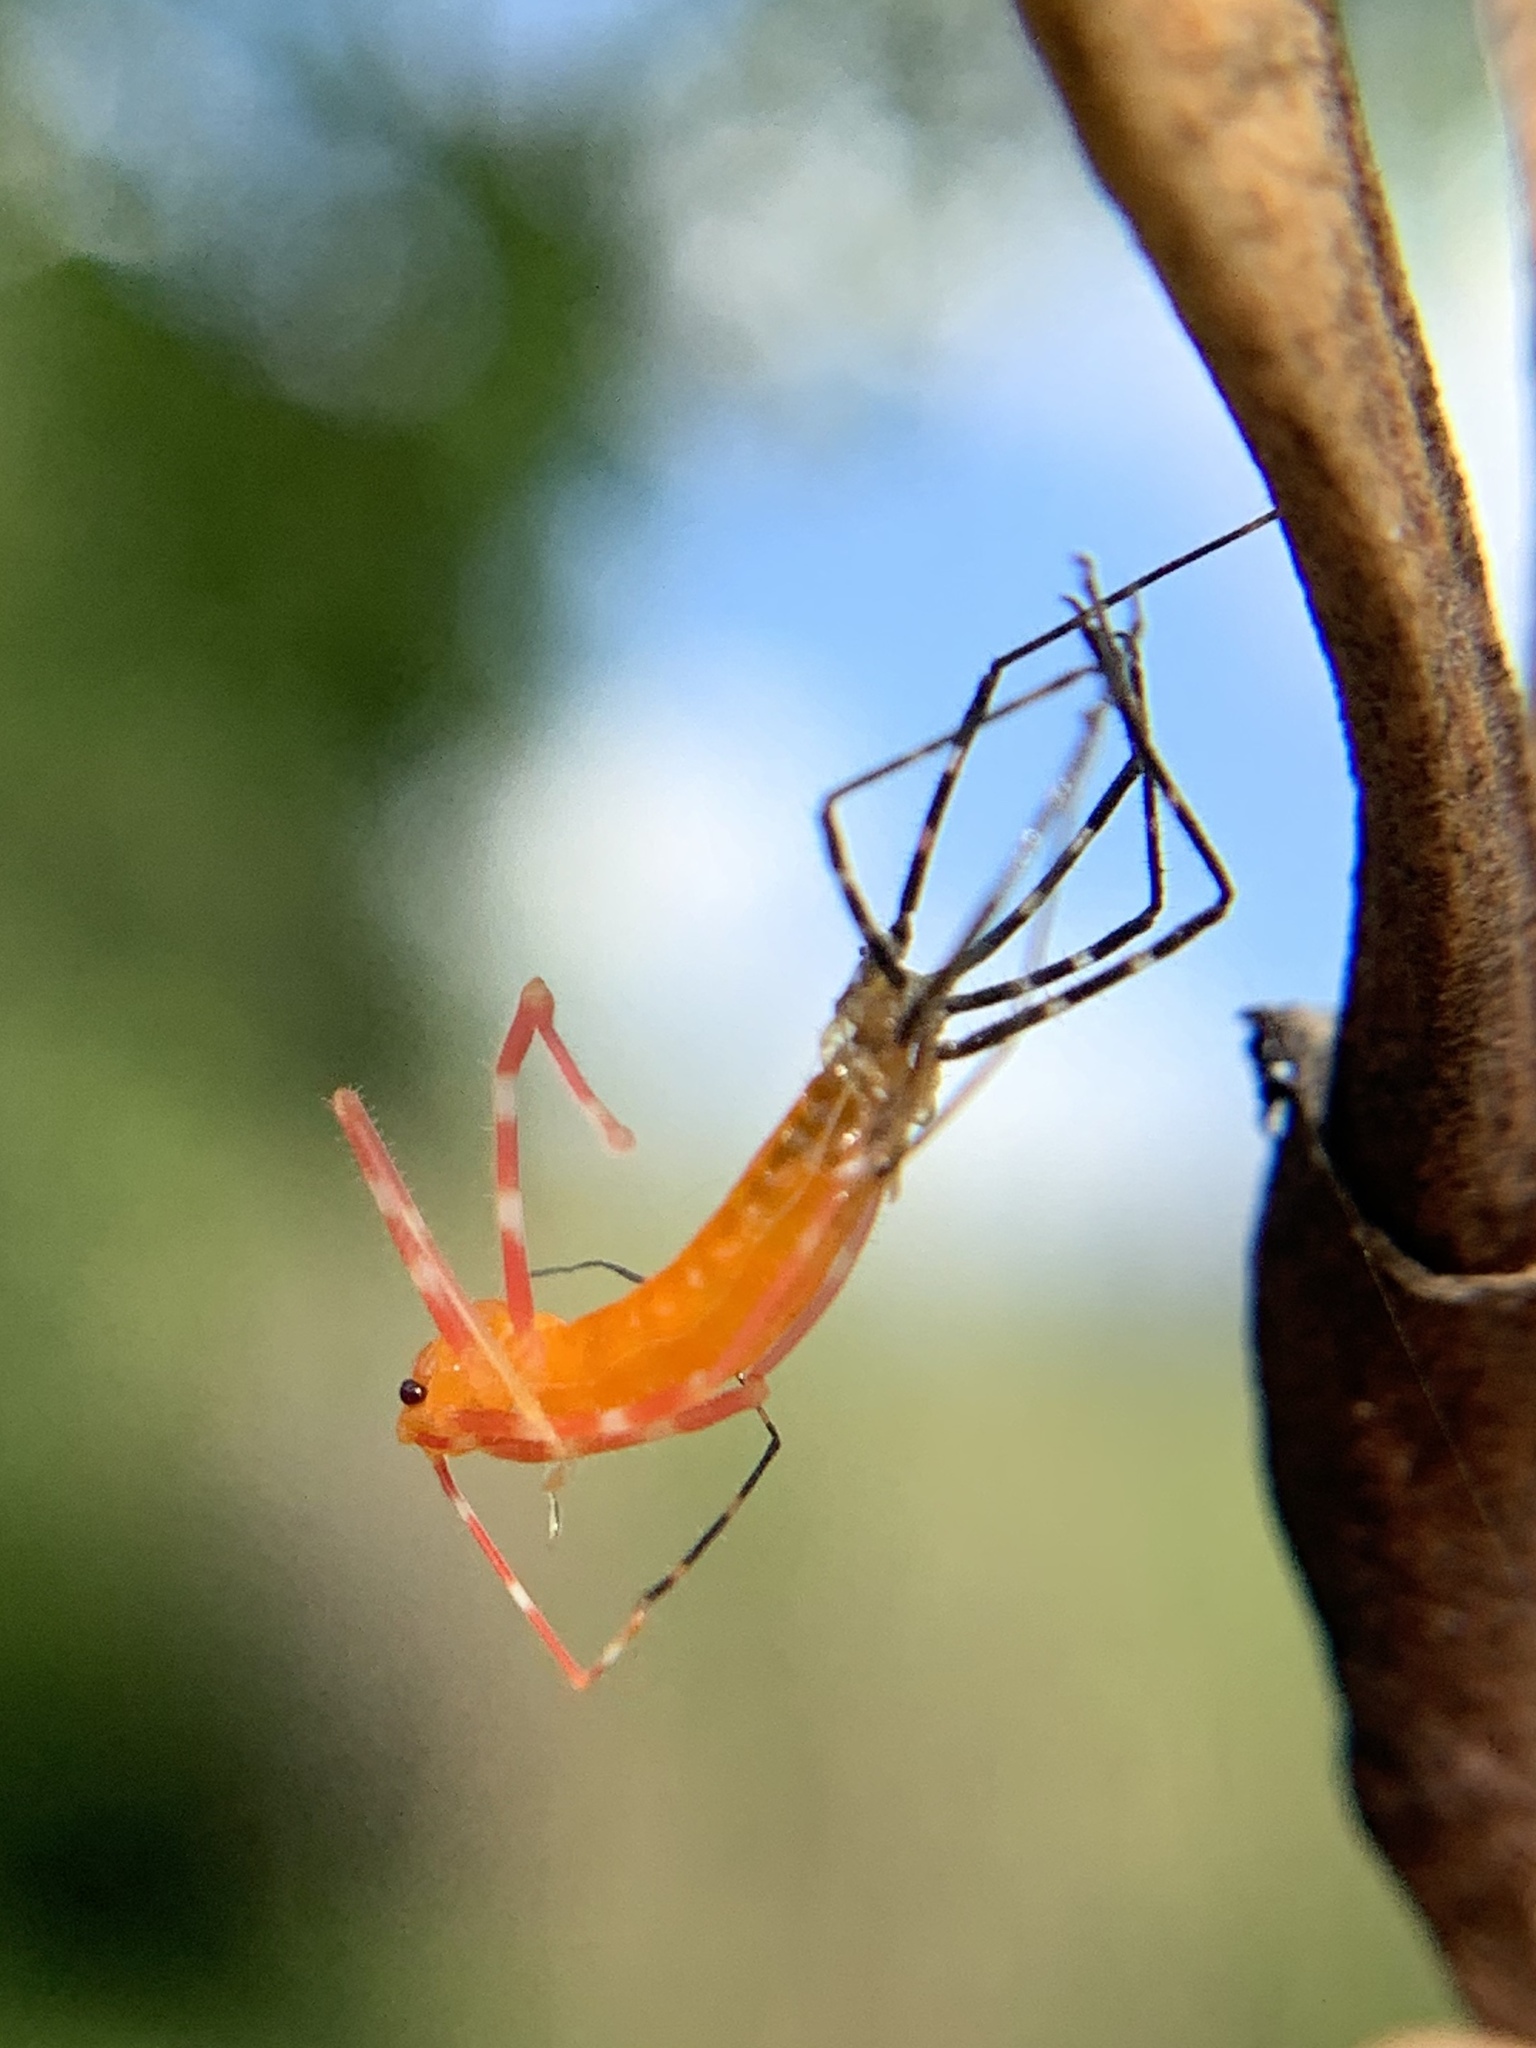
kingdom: Animalia
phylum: Arthropoda
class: Insecta
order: Hemiptera
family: Reduviidae
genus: Zelus
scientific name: Zelus longipes
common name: Milkweed assassin bug
